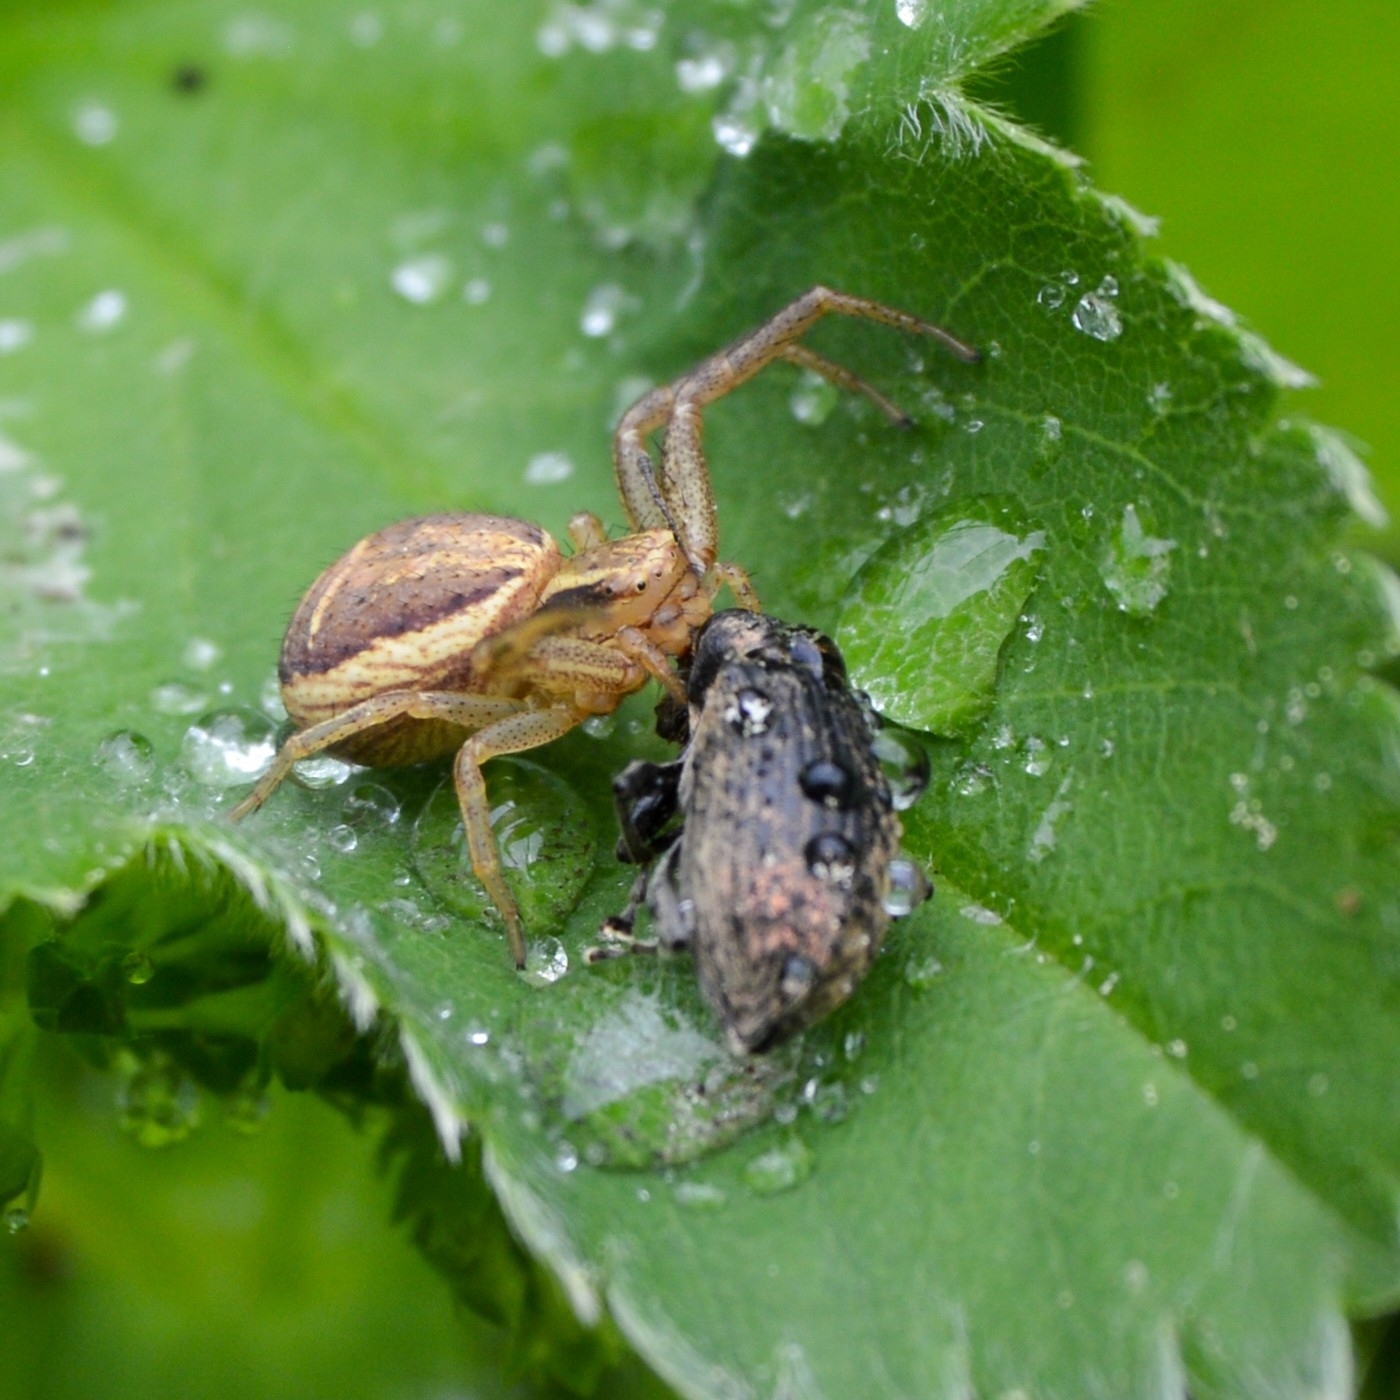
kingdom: Animalia
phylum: Arthropoda
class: Arachnida
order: Araneae
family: Thomisidae
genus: Xysticus
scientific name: Xysticus ulmi
